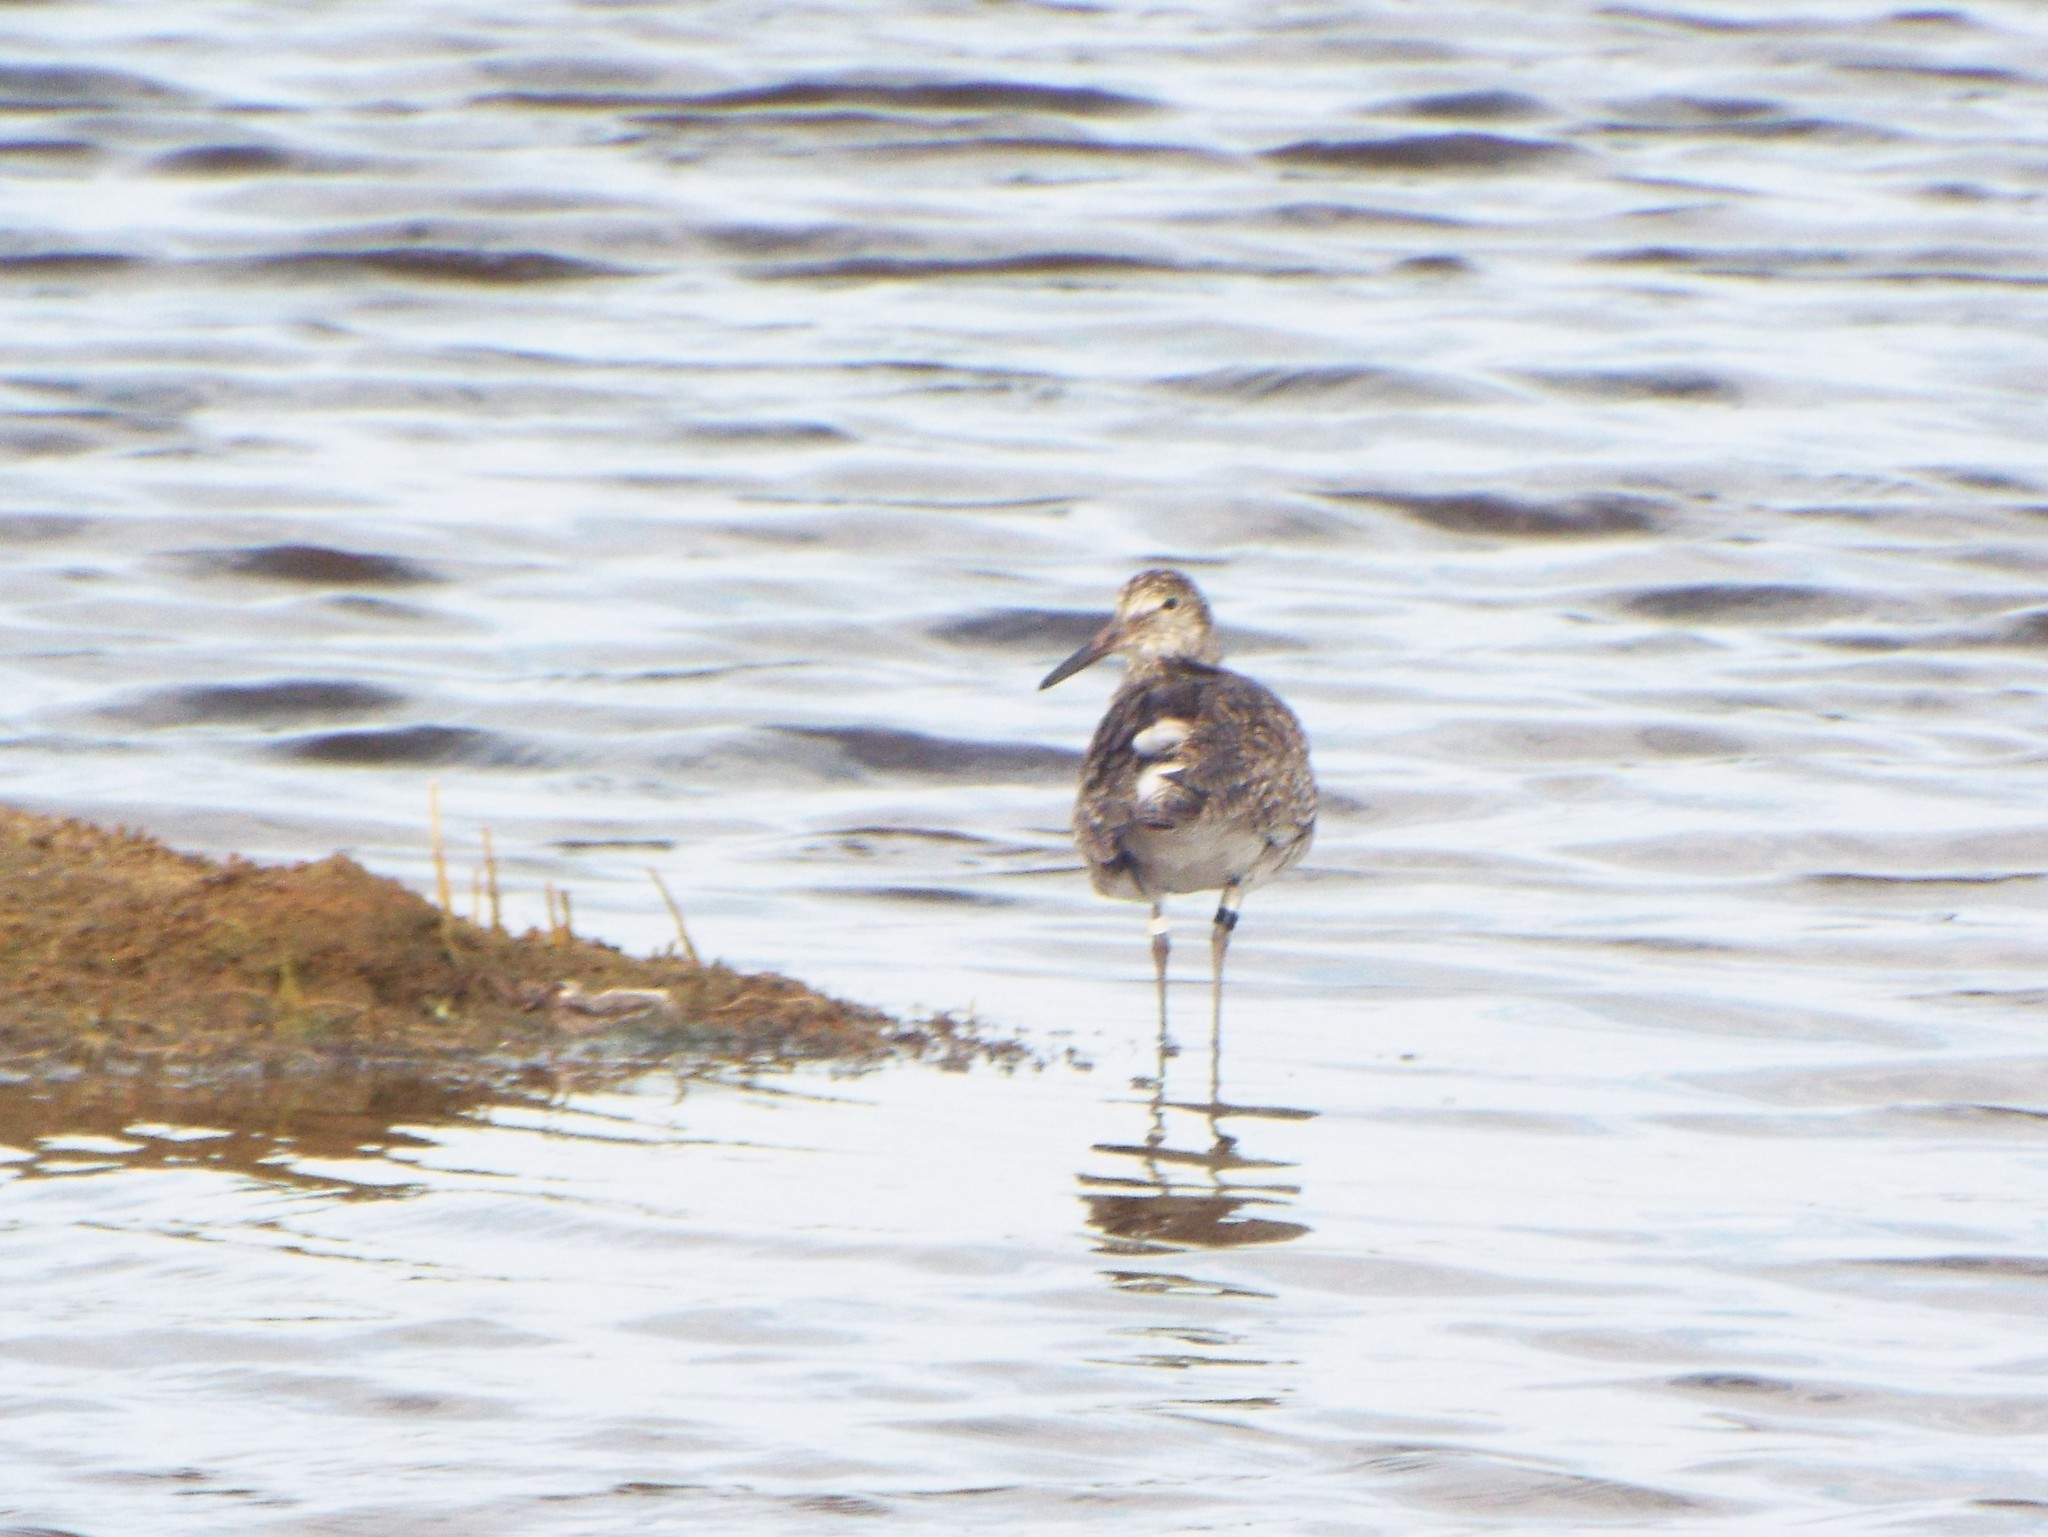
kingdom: Animalia
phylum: Chordata
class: Aves
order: Charadriiformes
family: Scolopacidae
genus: Tringa
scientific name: Tringa semipalmata
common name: Willet
